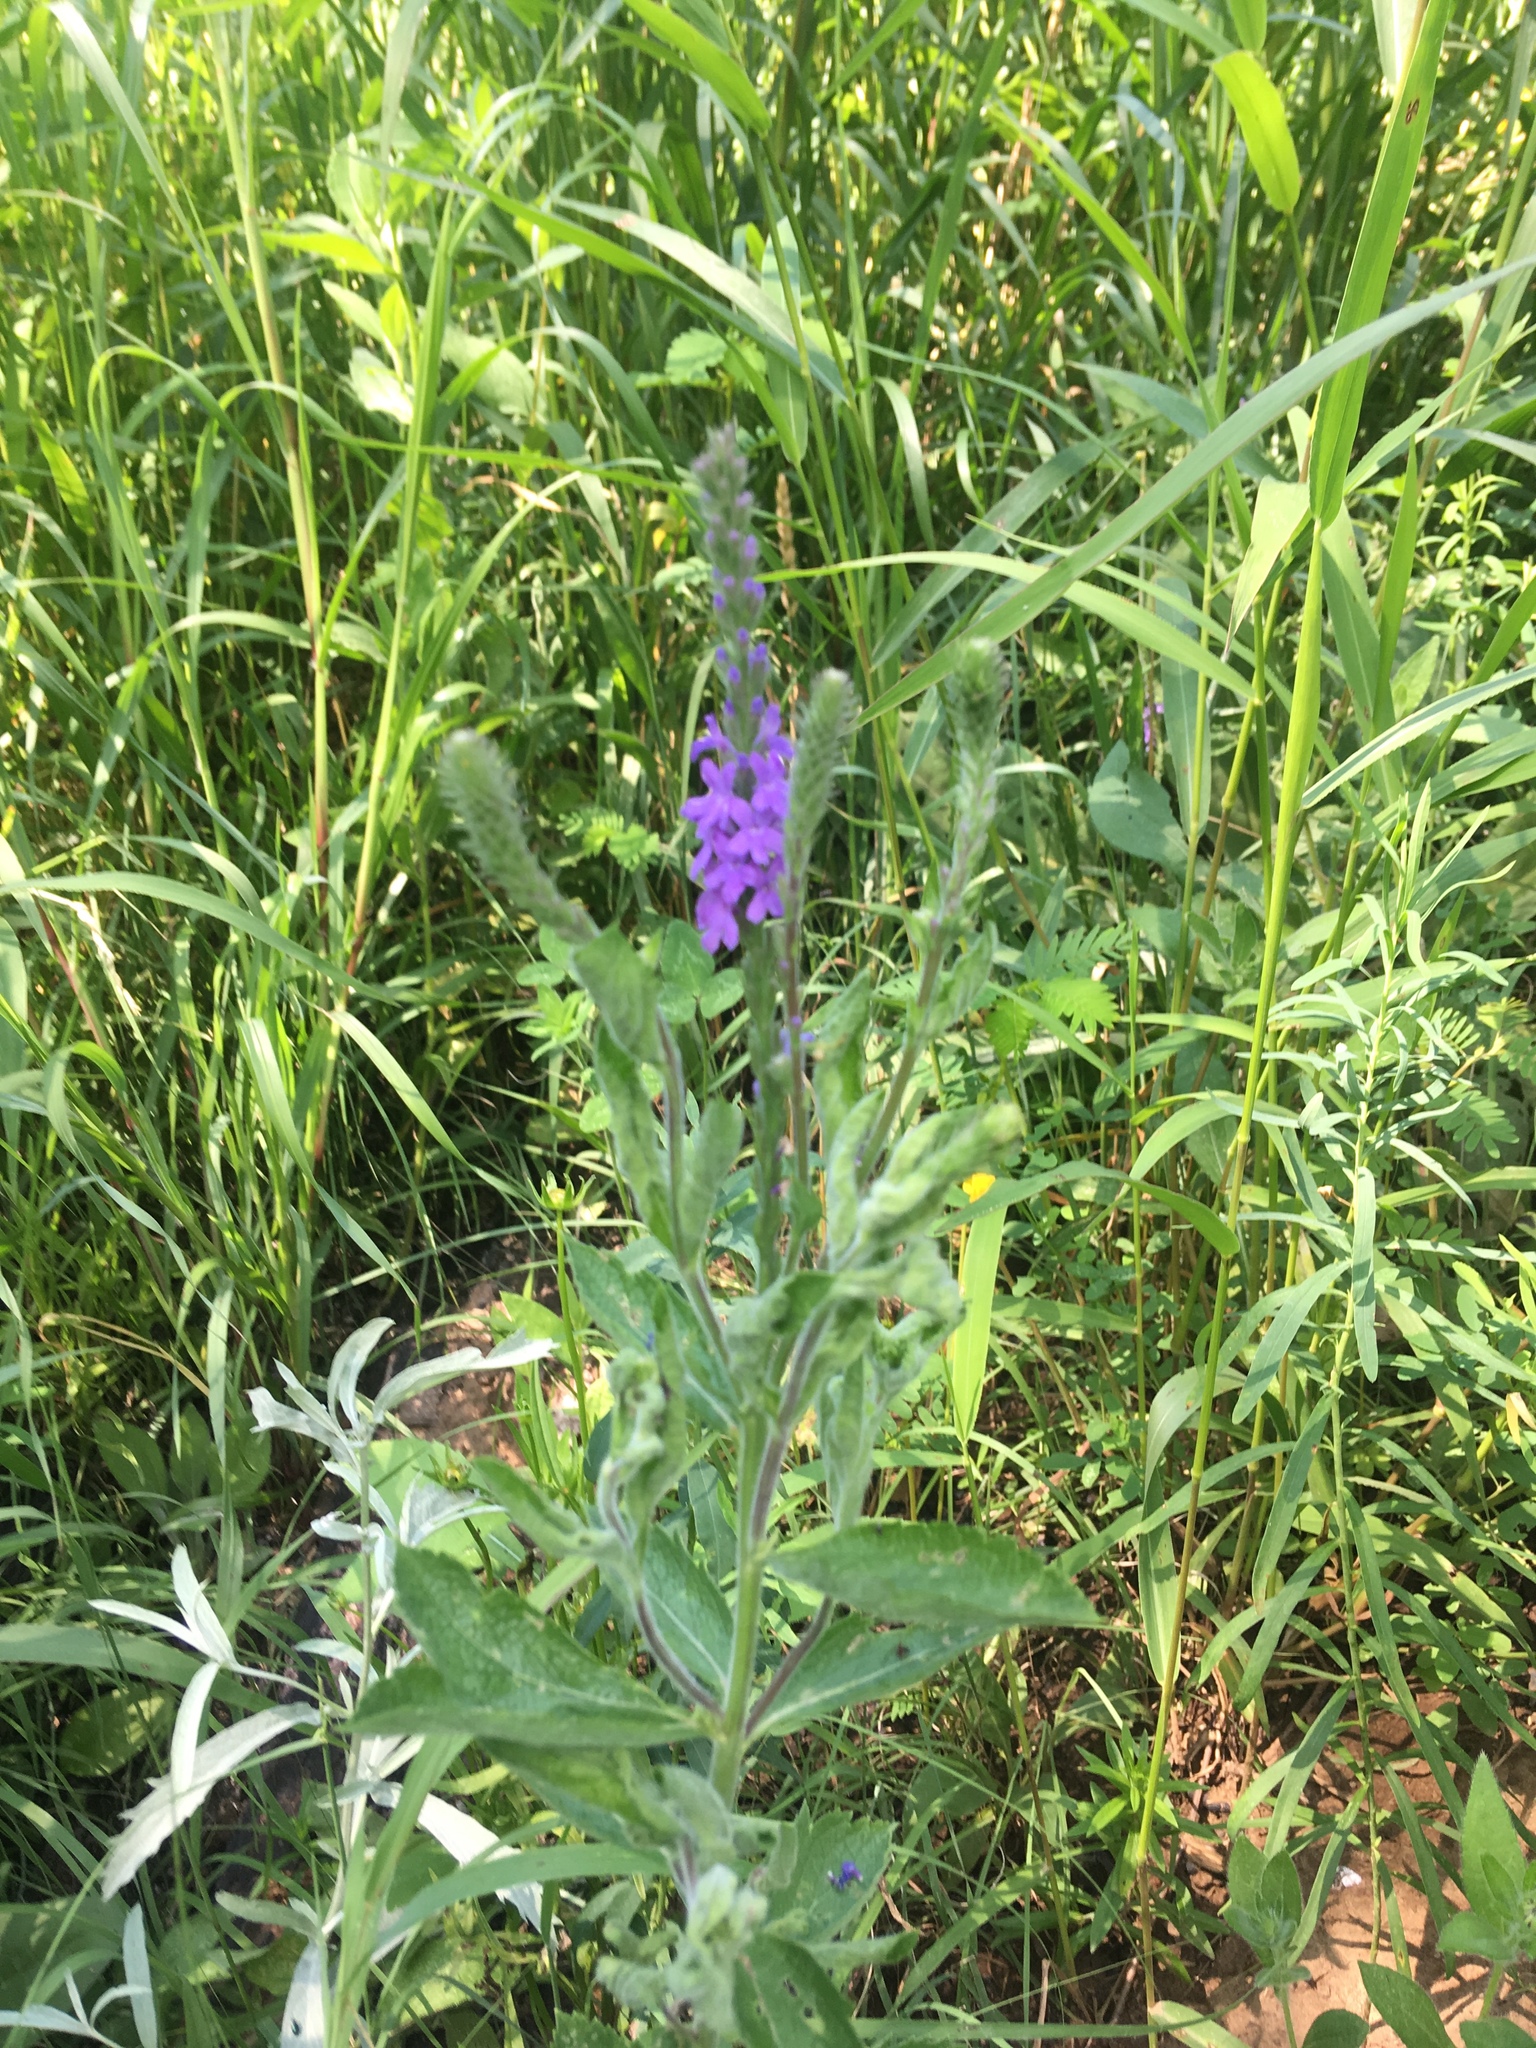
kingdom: Plantae
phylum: Tracheophyta
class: Magnoliopsida
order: Lamiales
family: Verbenaceae
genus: Verbena
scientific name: Verbena stricta
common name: Hoary vervain
